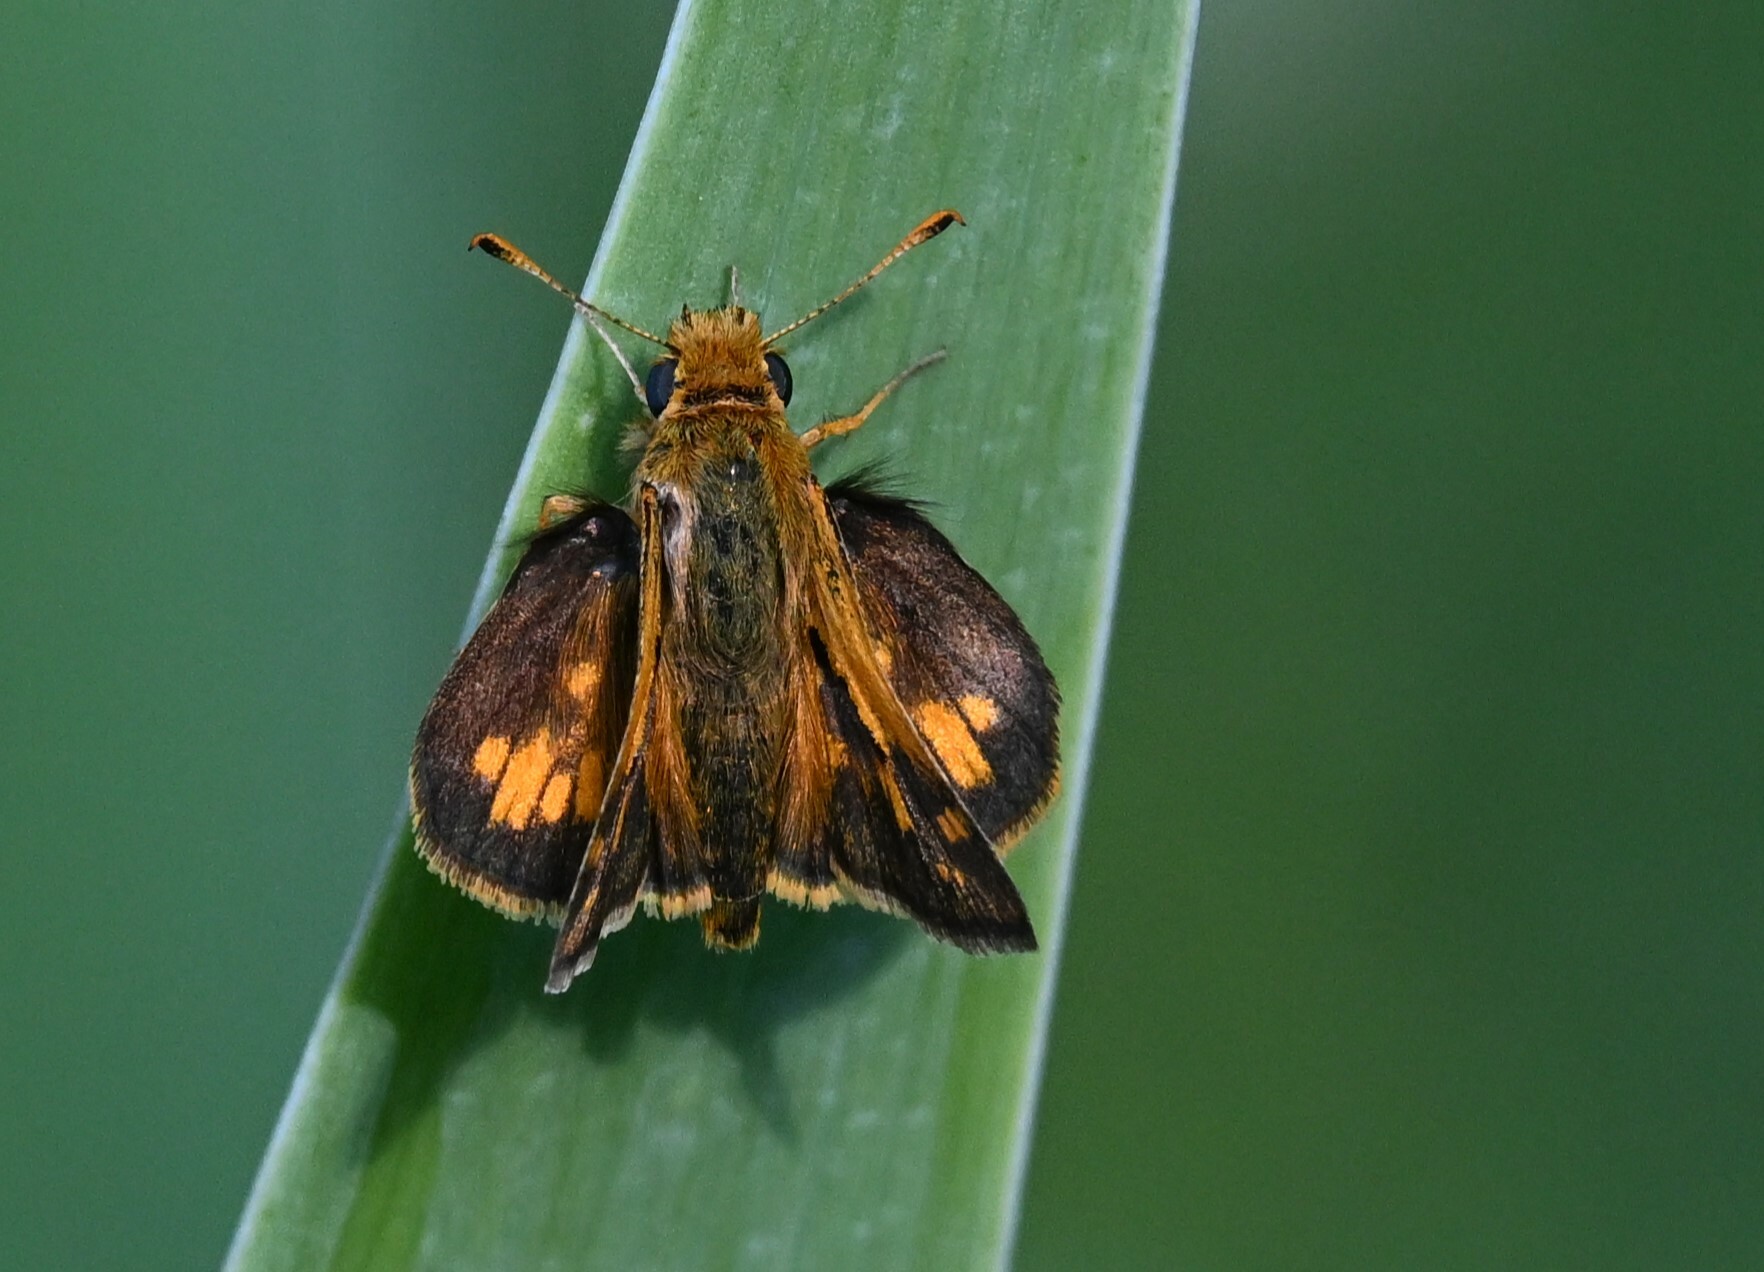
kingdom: Animalia
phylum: Arthropoda
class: Insecta
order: Lepidoptera
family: Hesperiidae
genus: Polites
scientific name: Polites coras
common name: Peck's skipper
